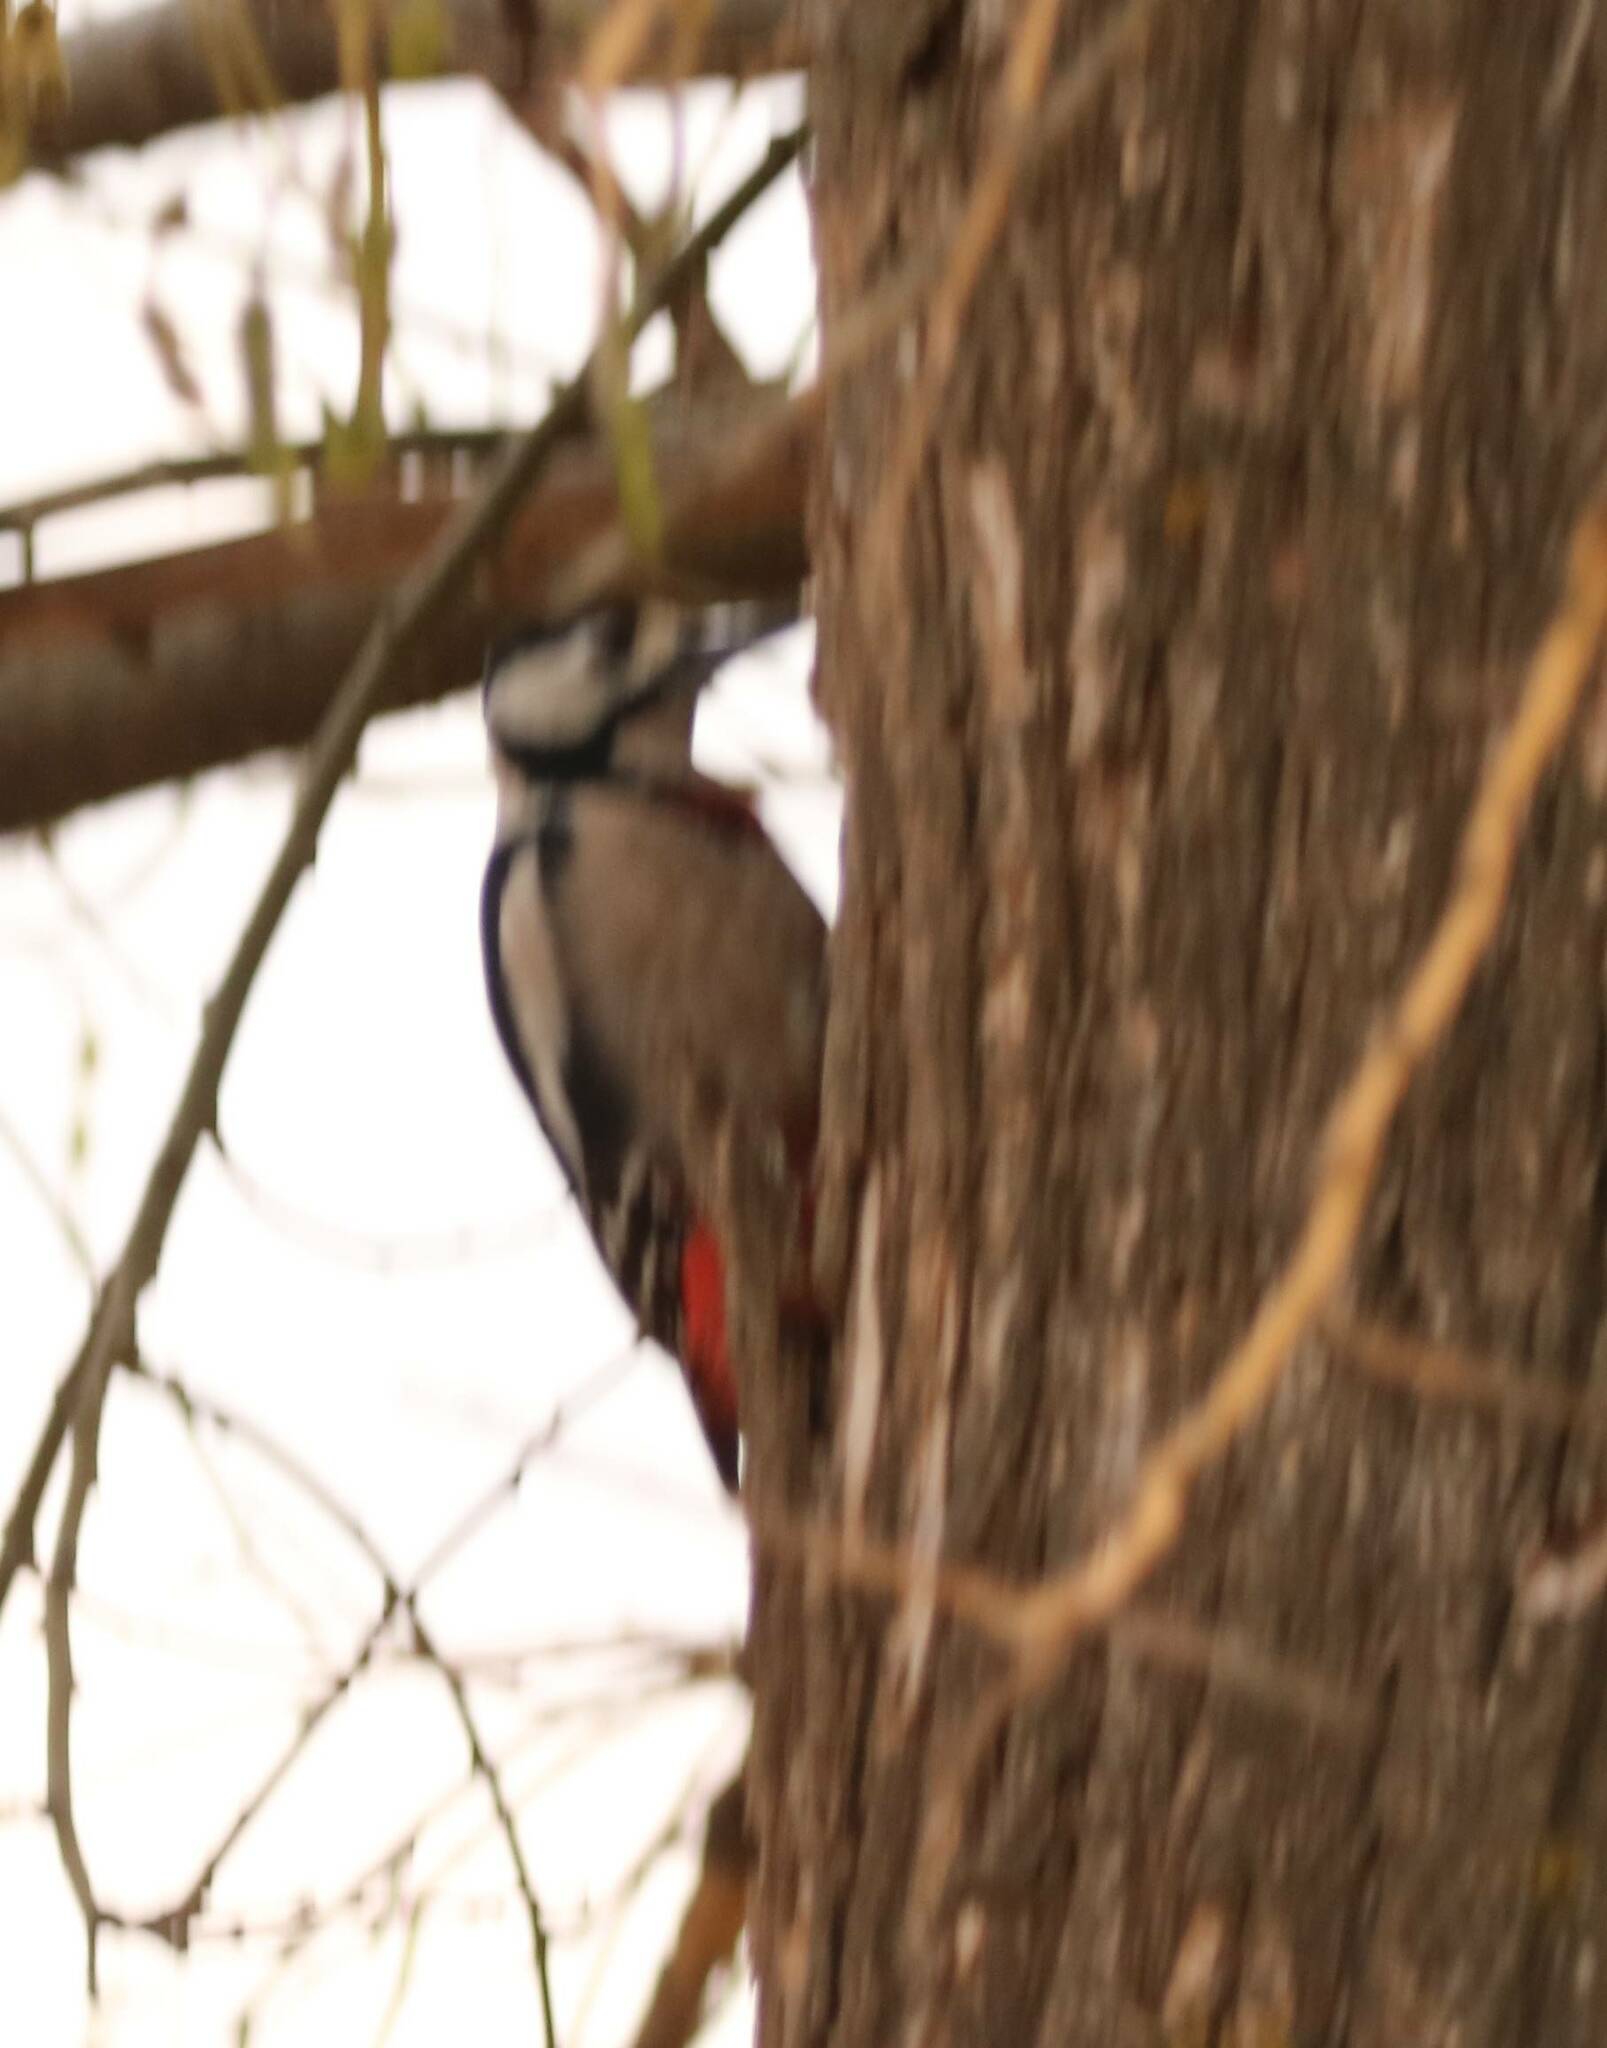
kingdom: Animalia
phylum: Chordata
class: Aves
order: Piciformes
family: Picidae
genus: Dendrocopos
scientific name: Dendrocopos major
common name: Great spotted woodpecker
